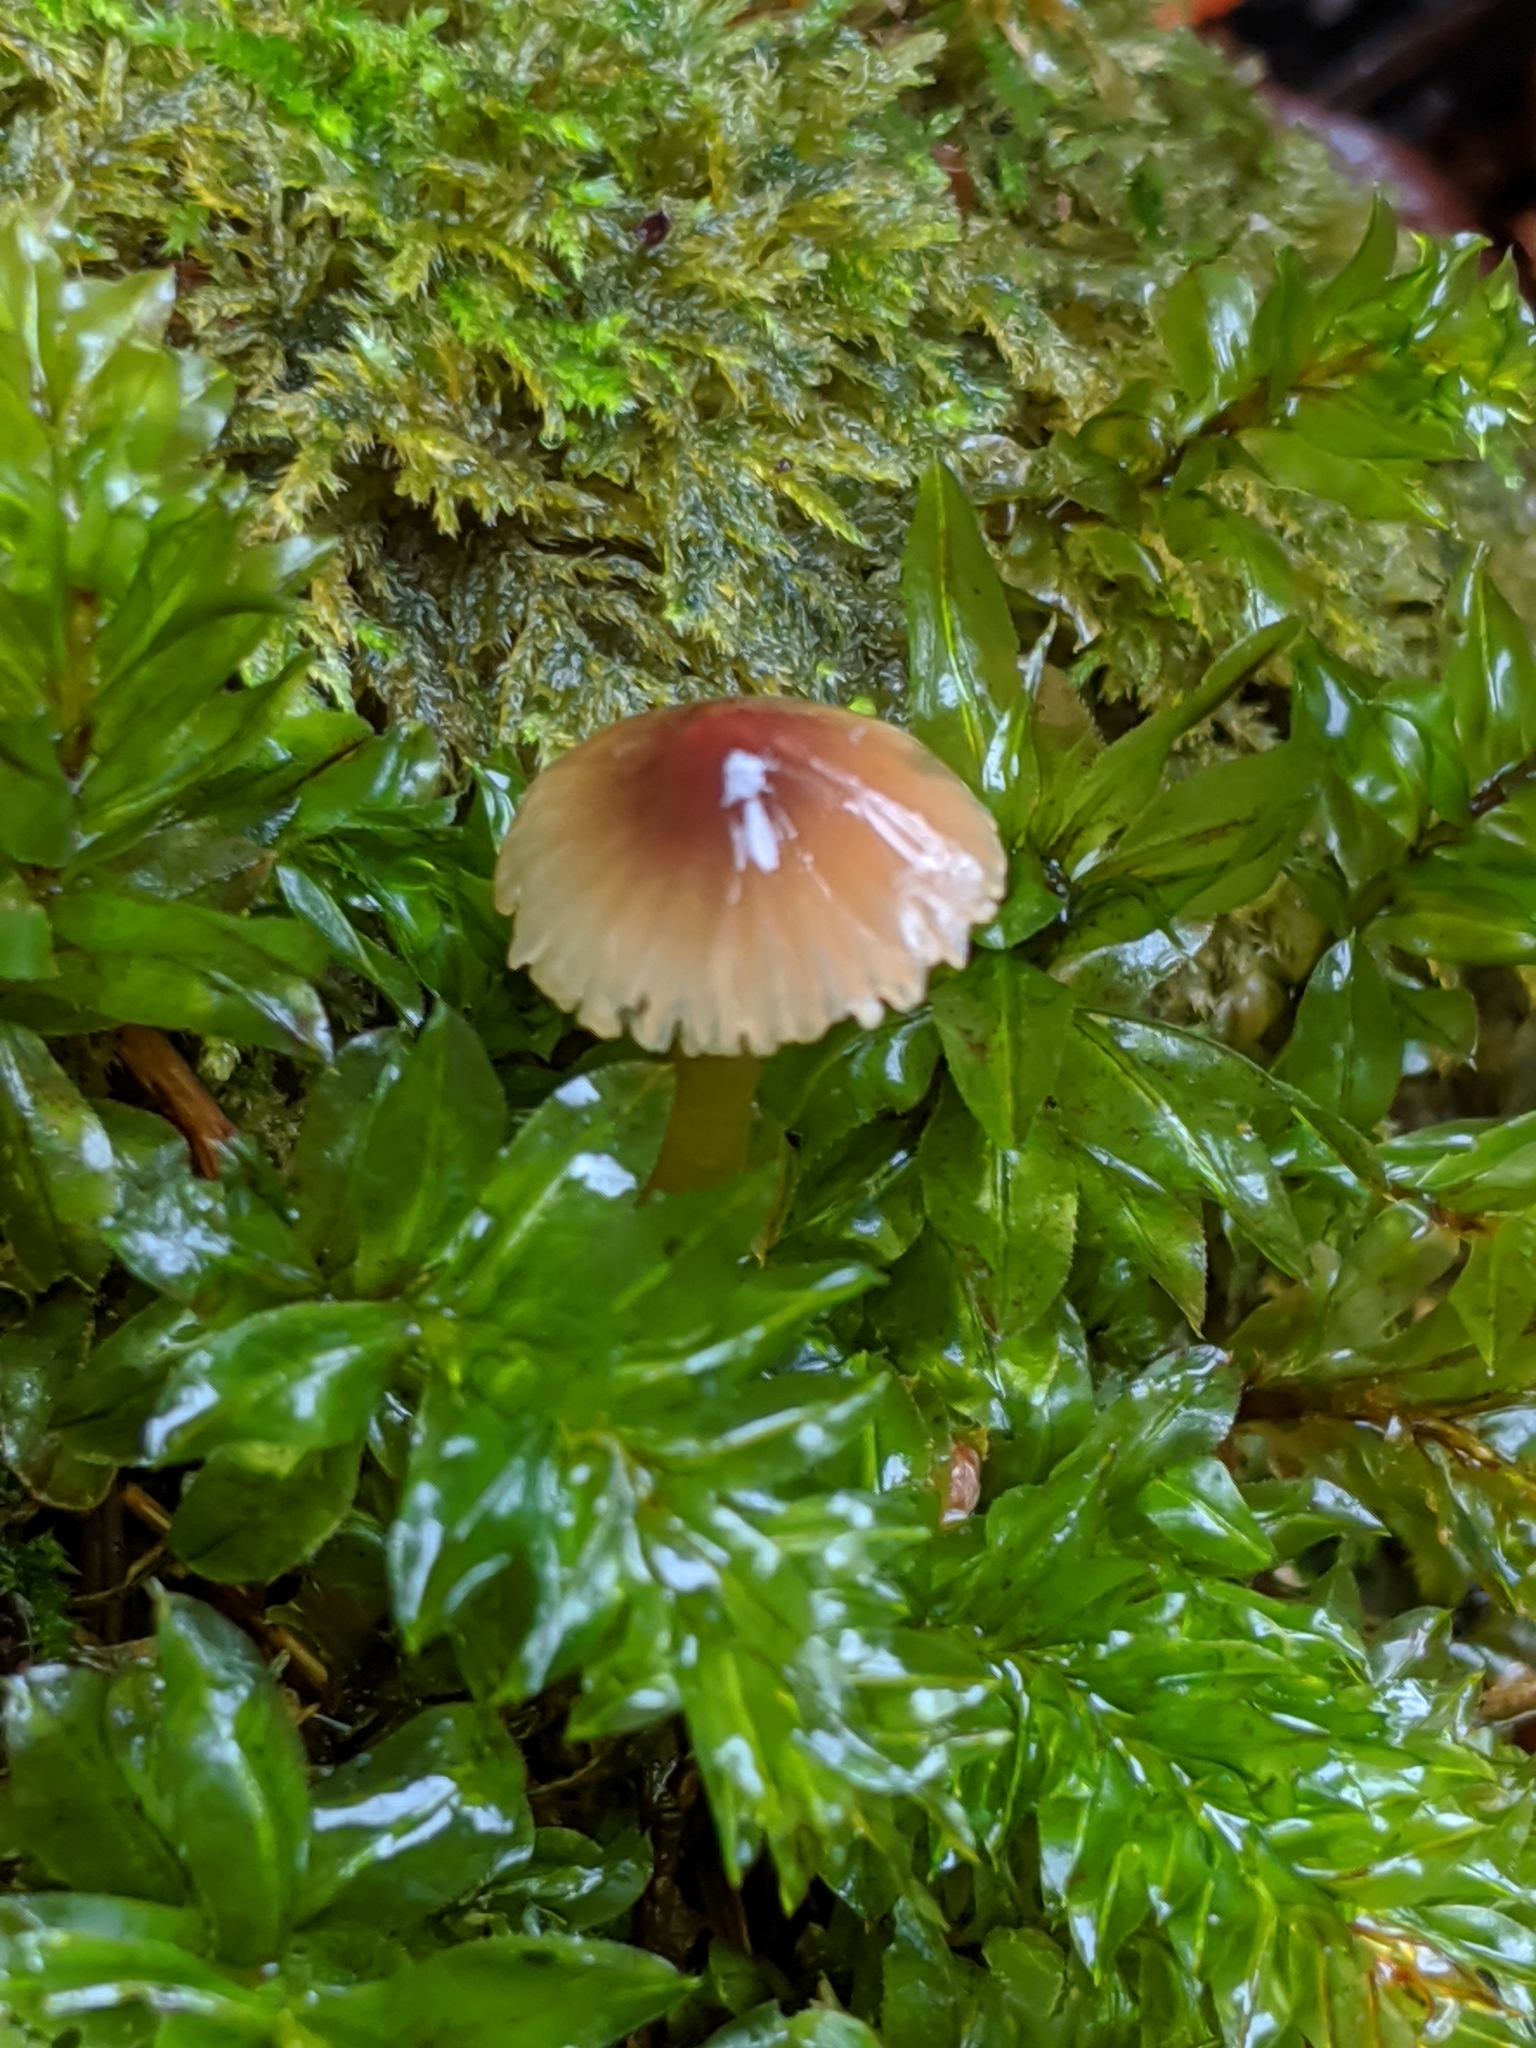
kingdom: Fungi
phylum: Basidiomycota
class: Agaricomycetes
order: Agaricales
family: Hygrophoraceae
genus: Gliophorus
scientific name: Gliophorus psittacinus
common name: Parrot wax-cap
